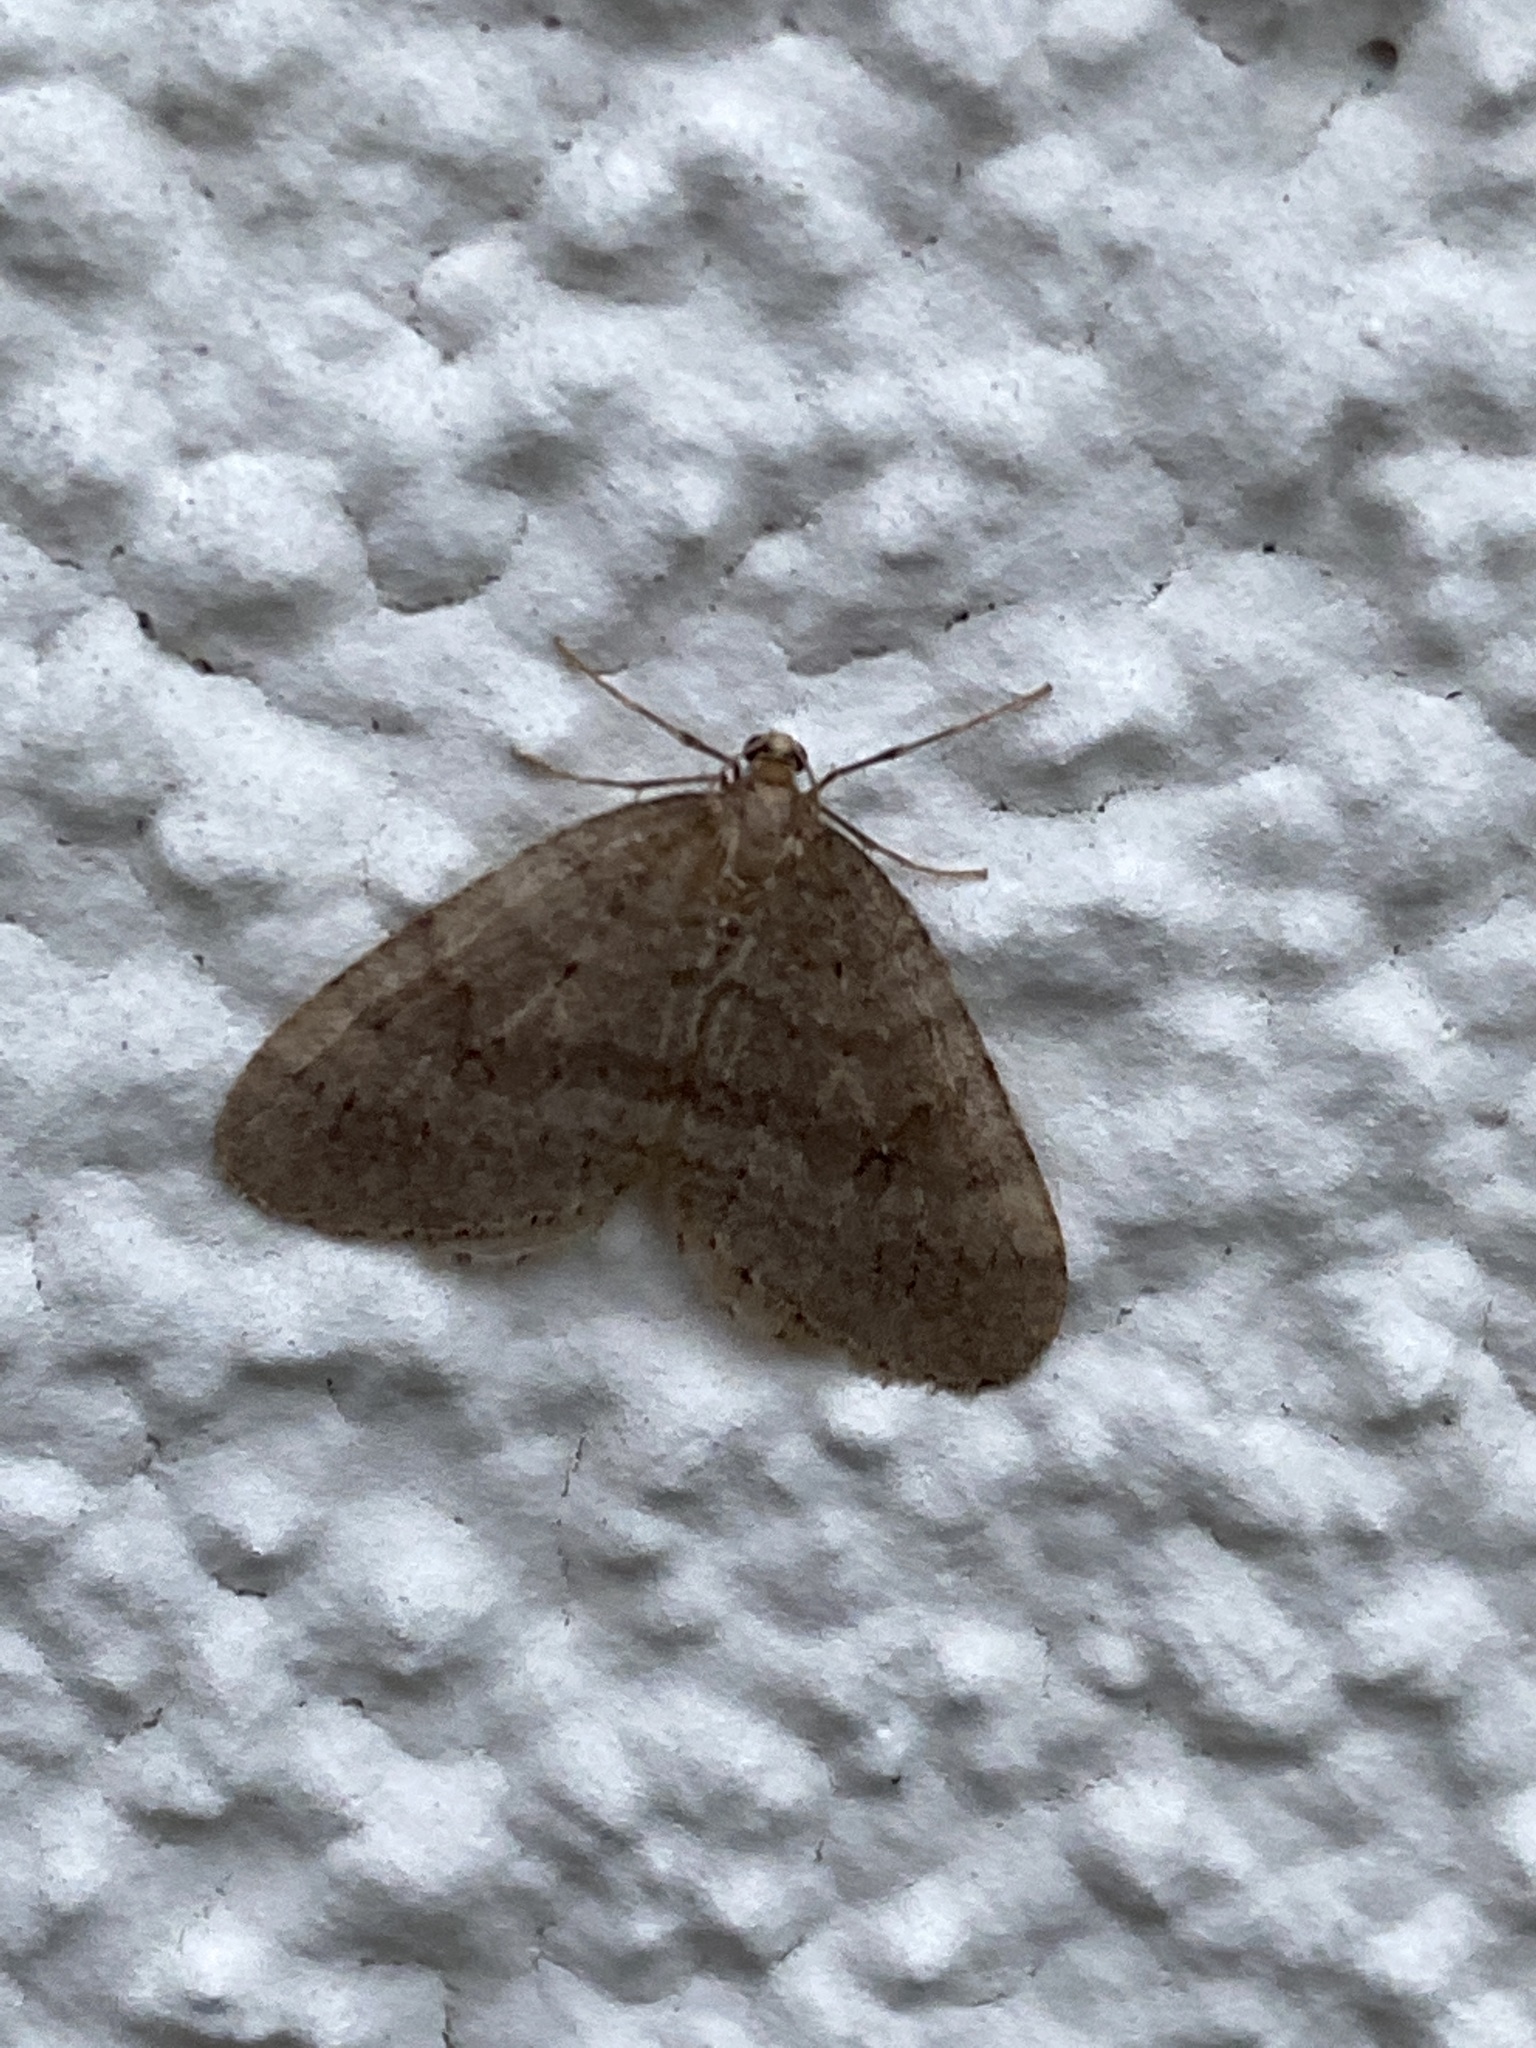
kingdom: Animalia
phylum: Arthropoda
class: Insecta
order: Lepidoptera
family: Geometridae
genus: Operophtera
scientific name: Operophtera brumata
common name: Winter moth
